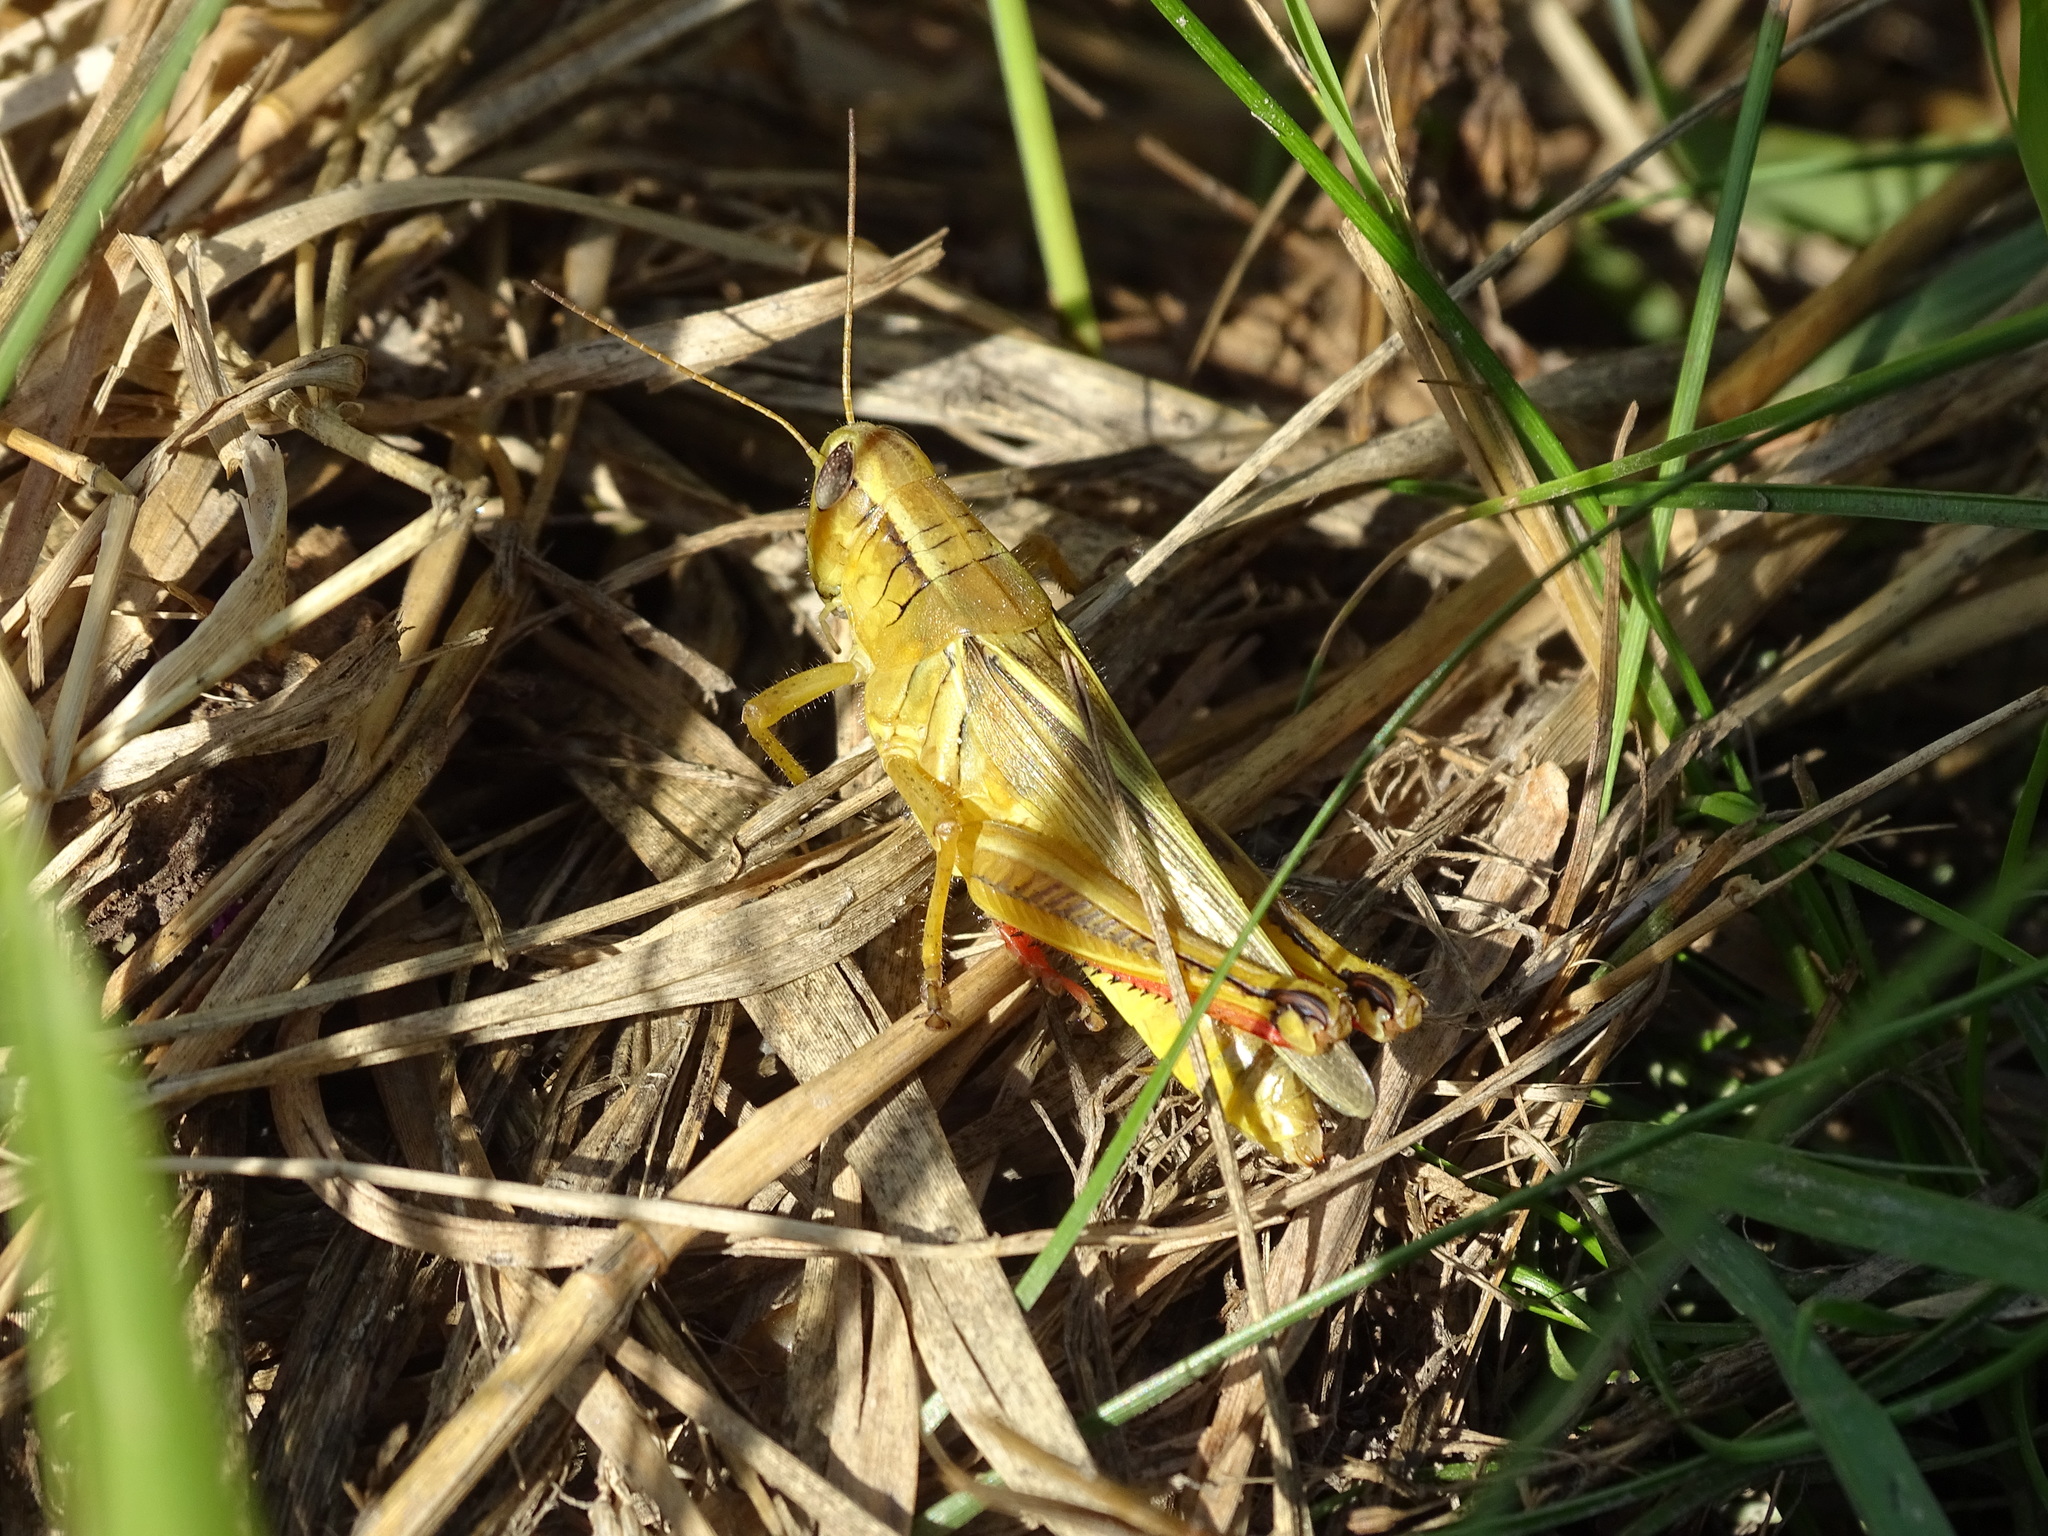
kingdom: Animalia
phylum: Arthropoda
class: Insecta
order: Orthoptera
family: Acrididae
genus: Melanoplus
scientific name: Melanoplus bivittatus
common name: Two-striped grasshopper
